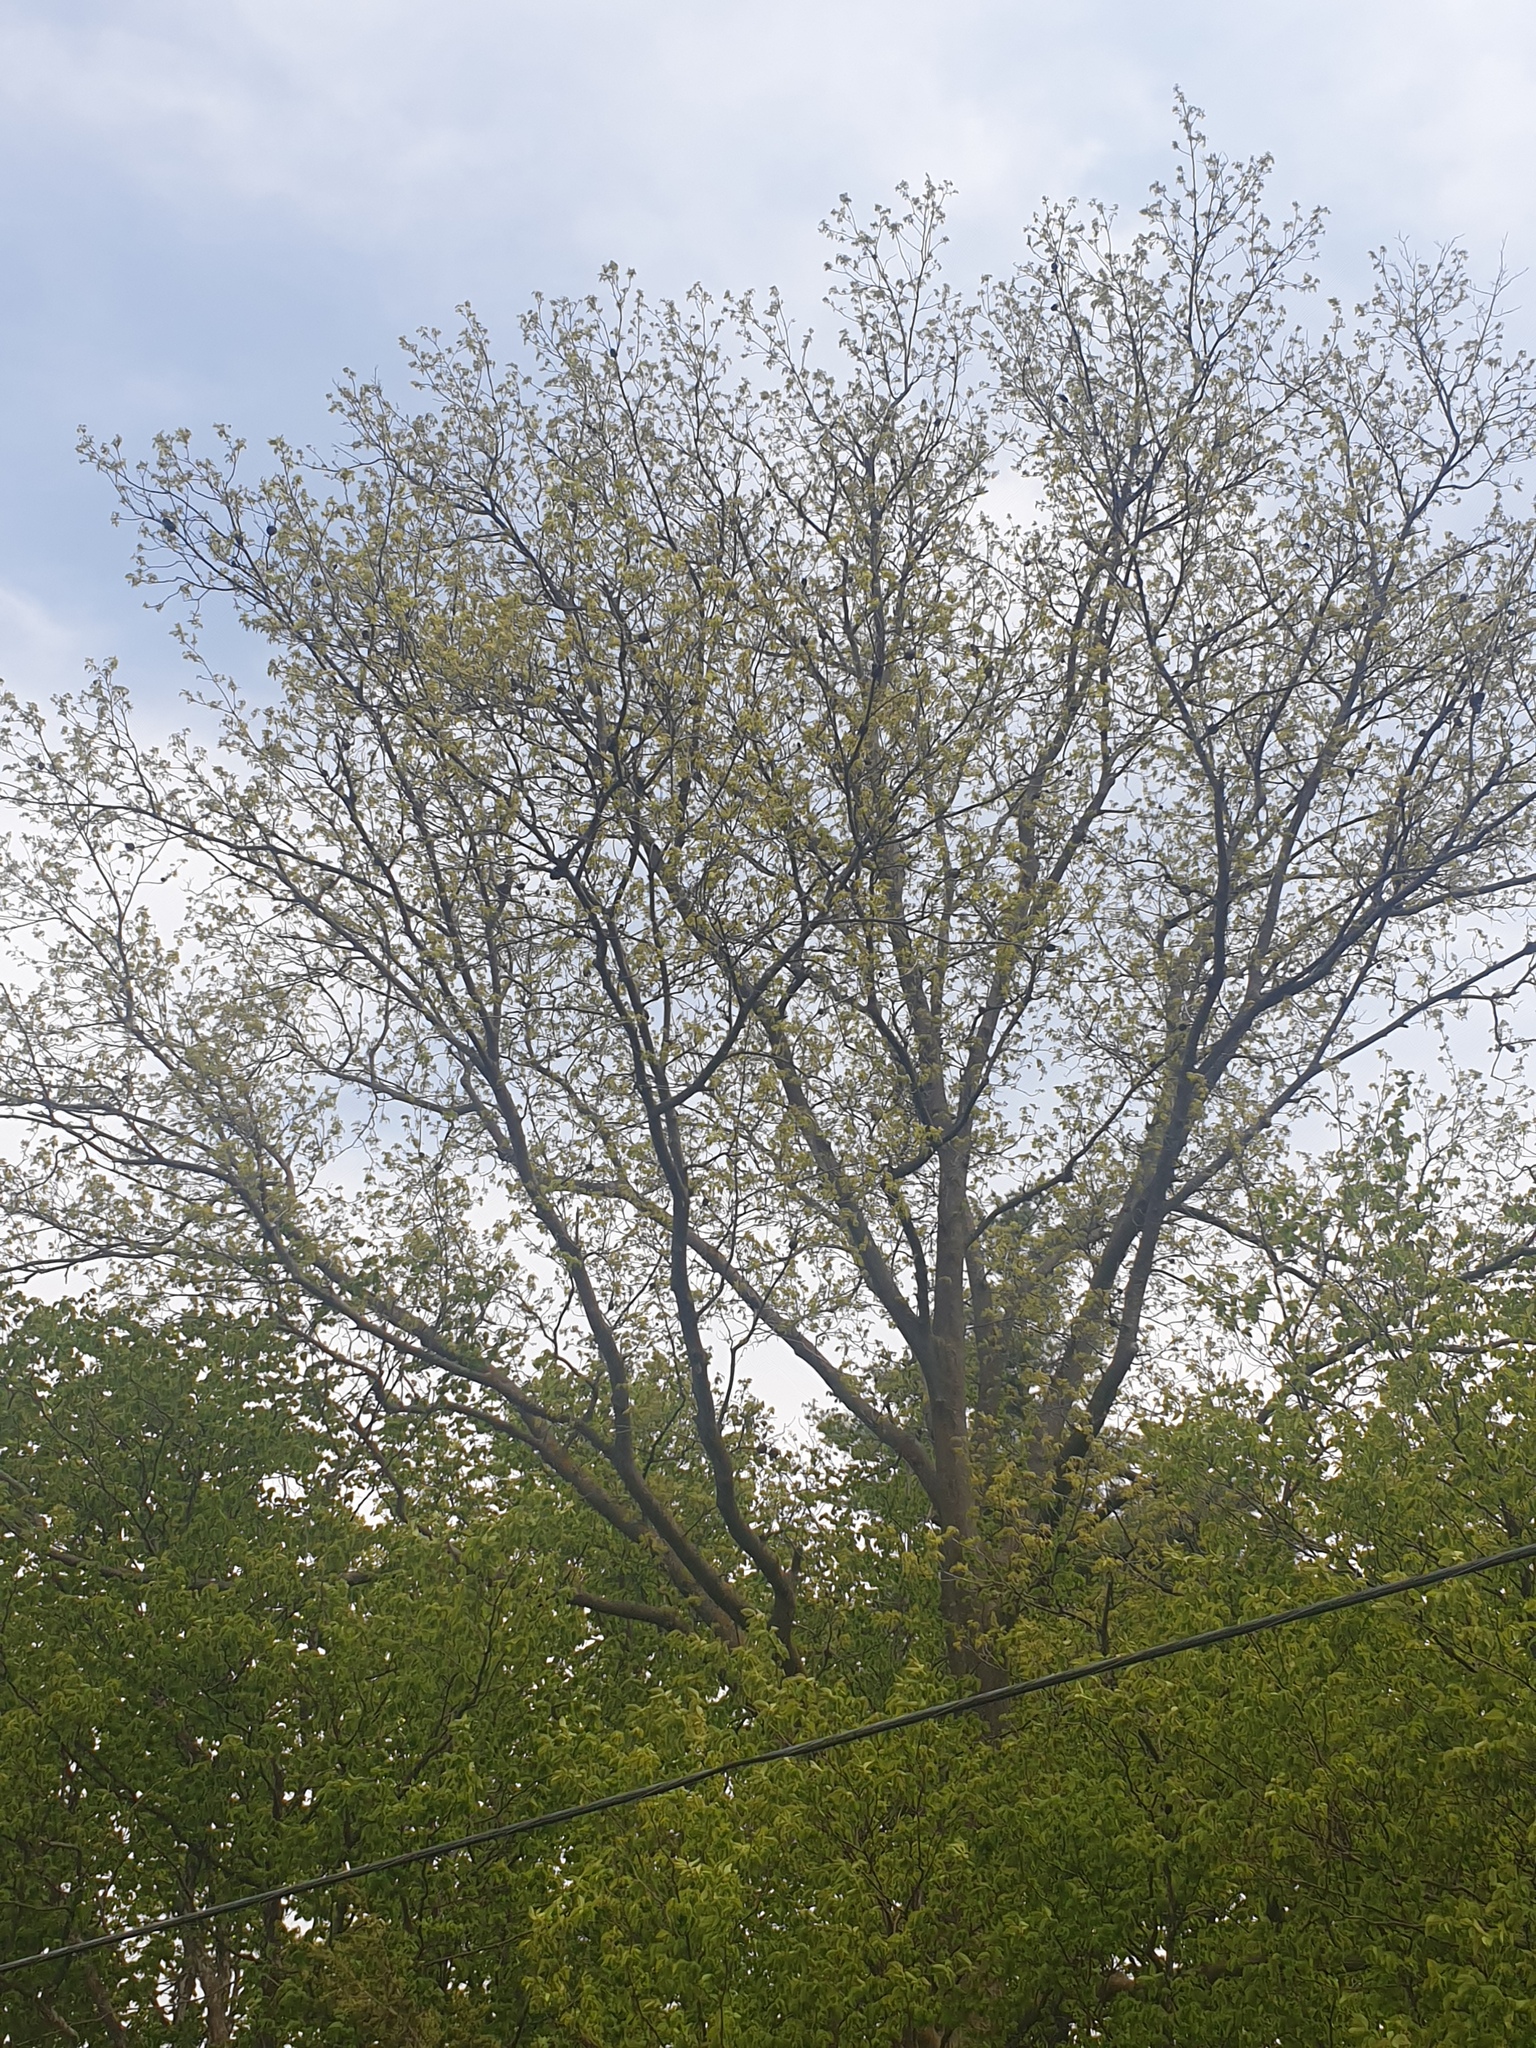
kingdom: Plantae
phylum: Tracheophyta
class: Magnoliopsida
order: Fagales
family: Juglandaceae
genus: Carya
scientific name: Carya cordiformis
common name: Bitternut hickory
